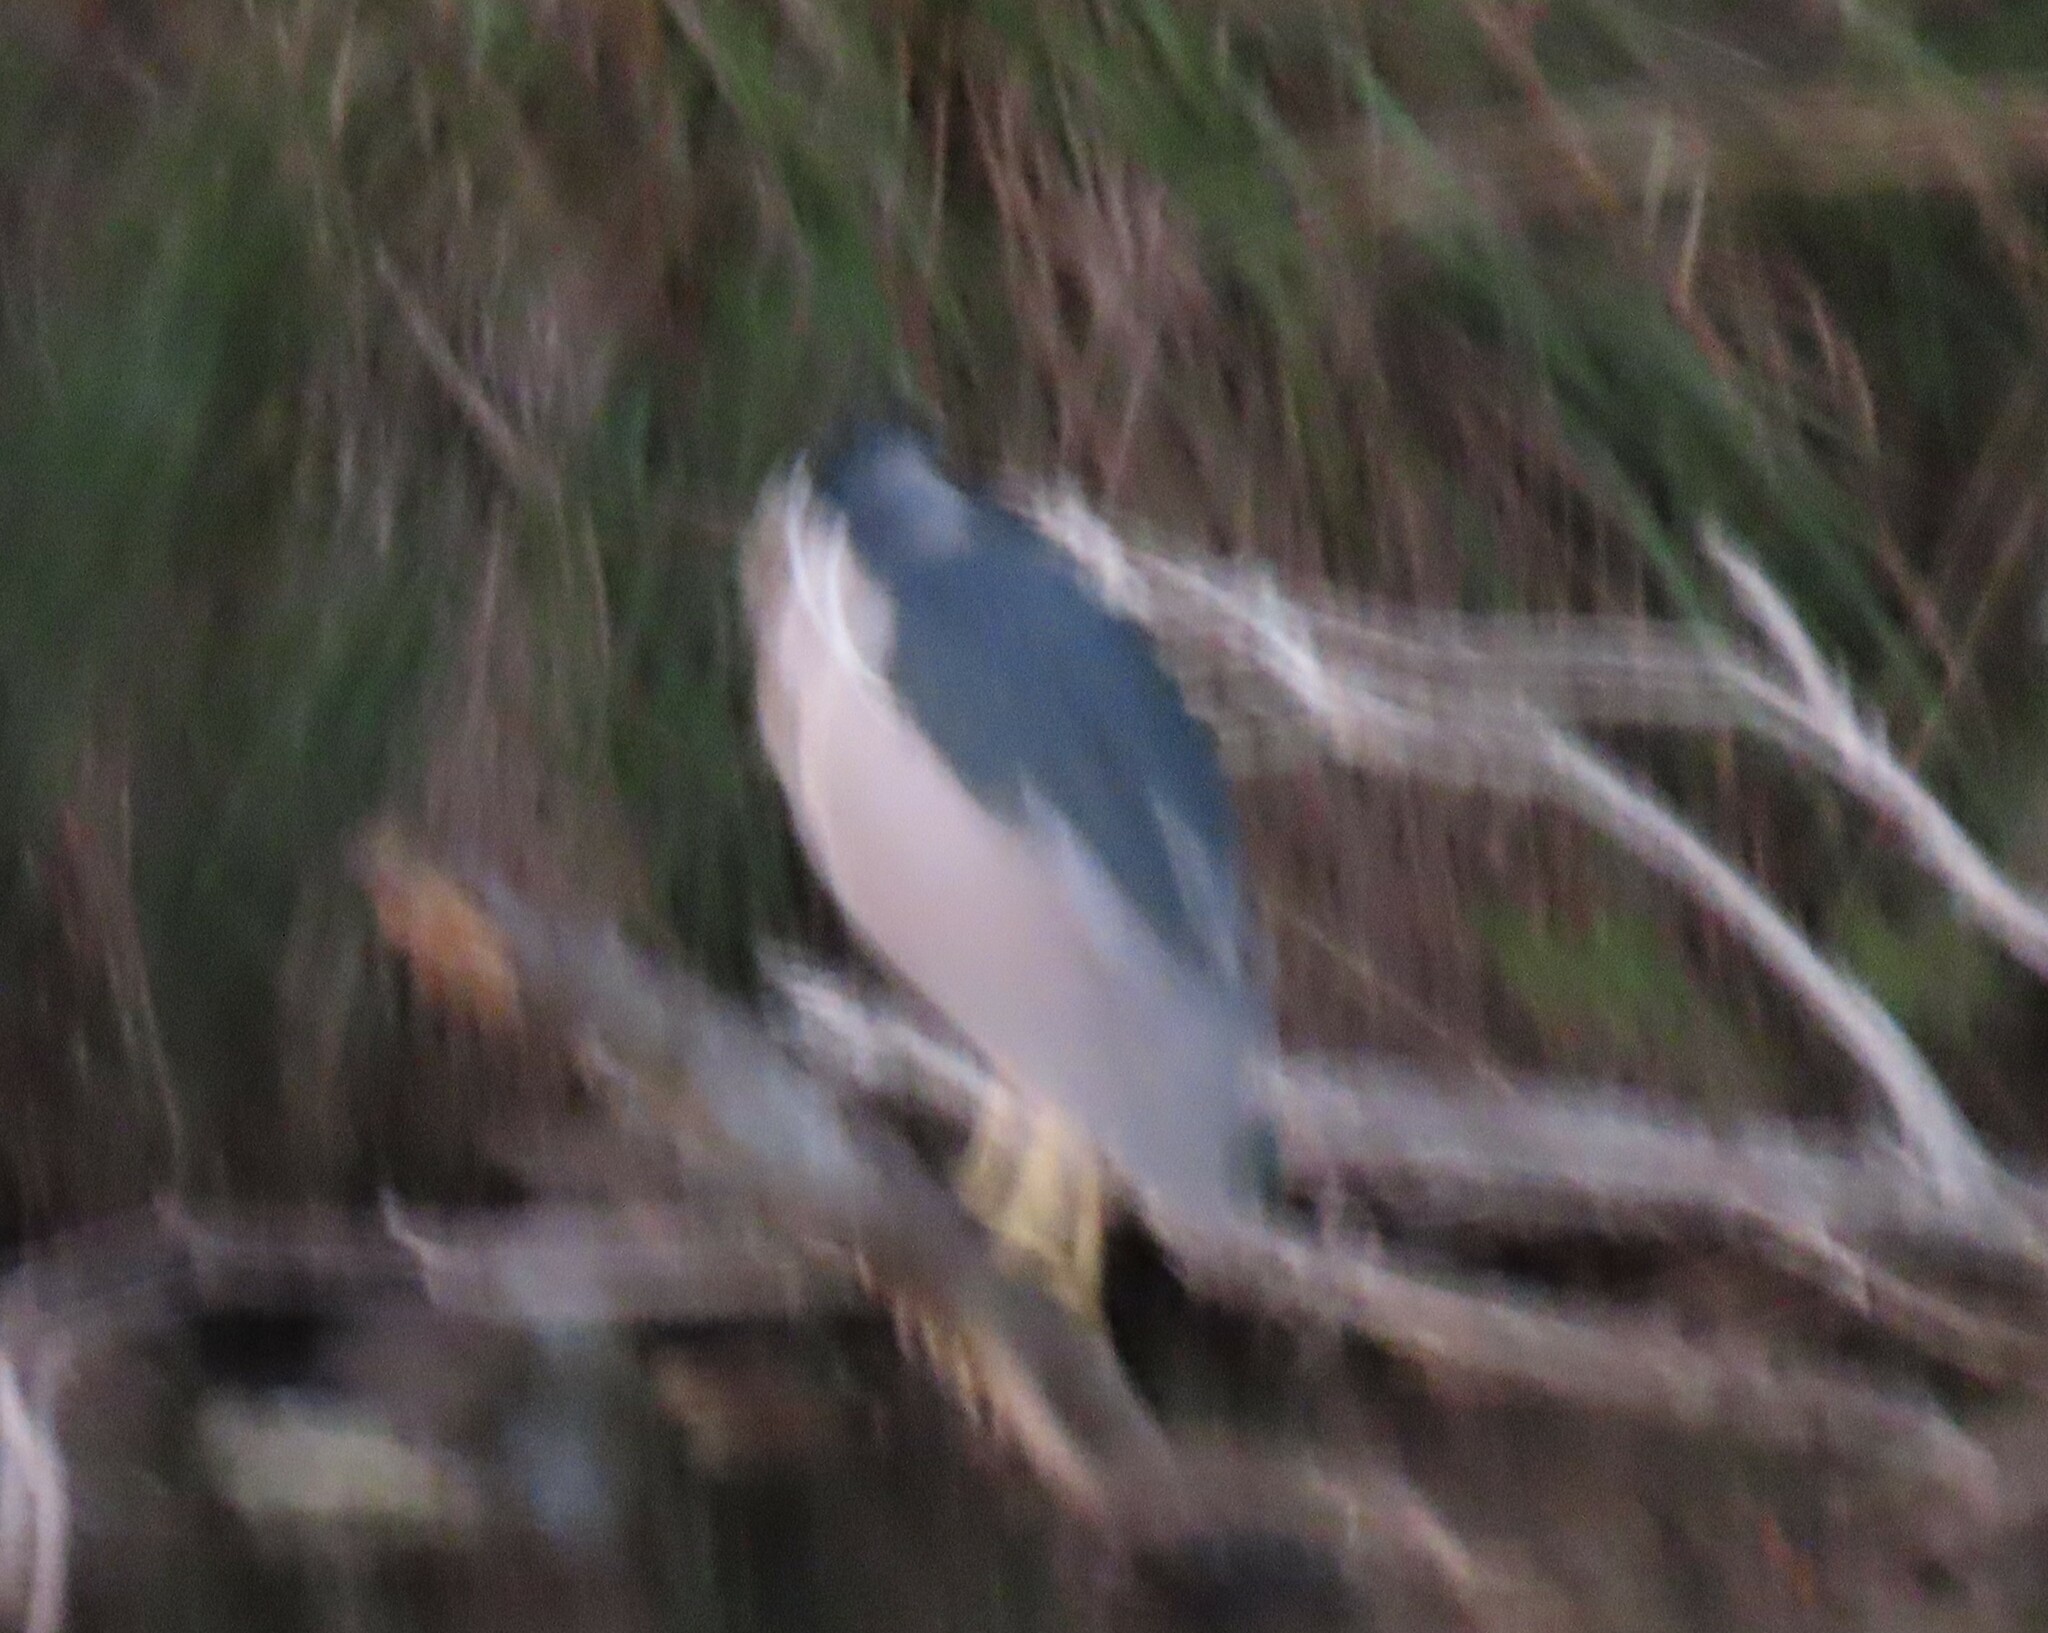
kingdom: Animalia
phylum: Chordata
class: Aves
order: Pelecaniformes
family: Ardeidae
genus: Nycticorax
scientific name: Nycticorax nycticorax
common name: Black-crowned night heron
